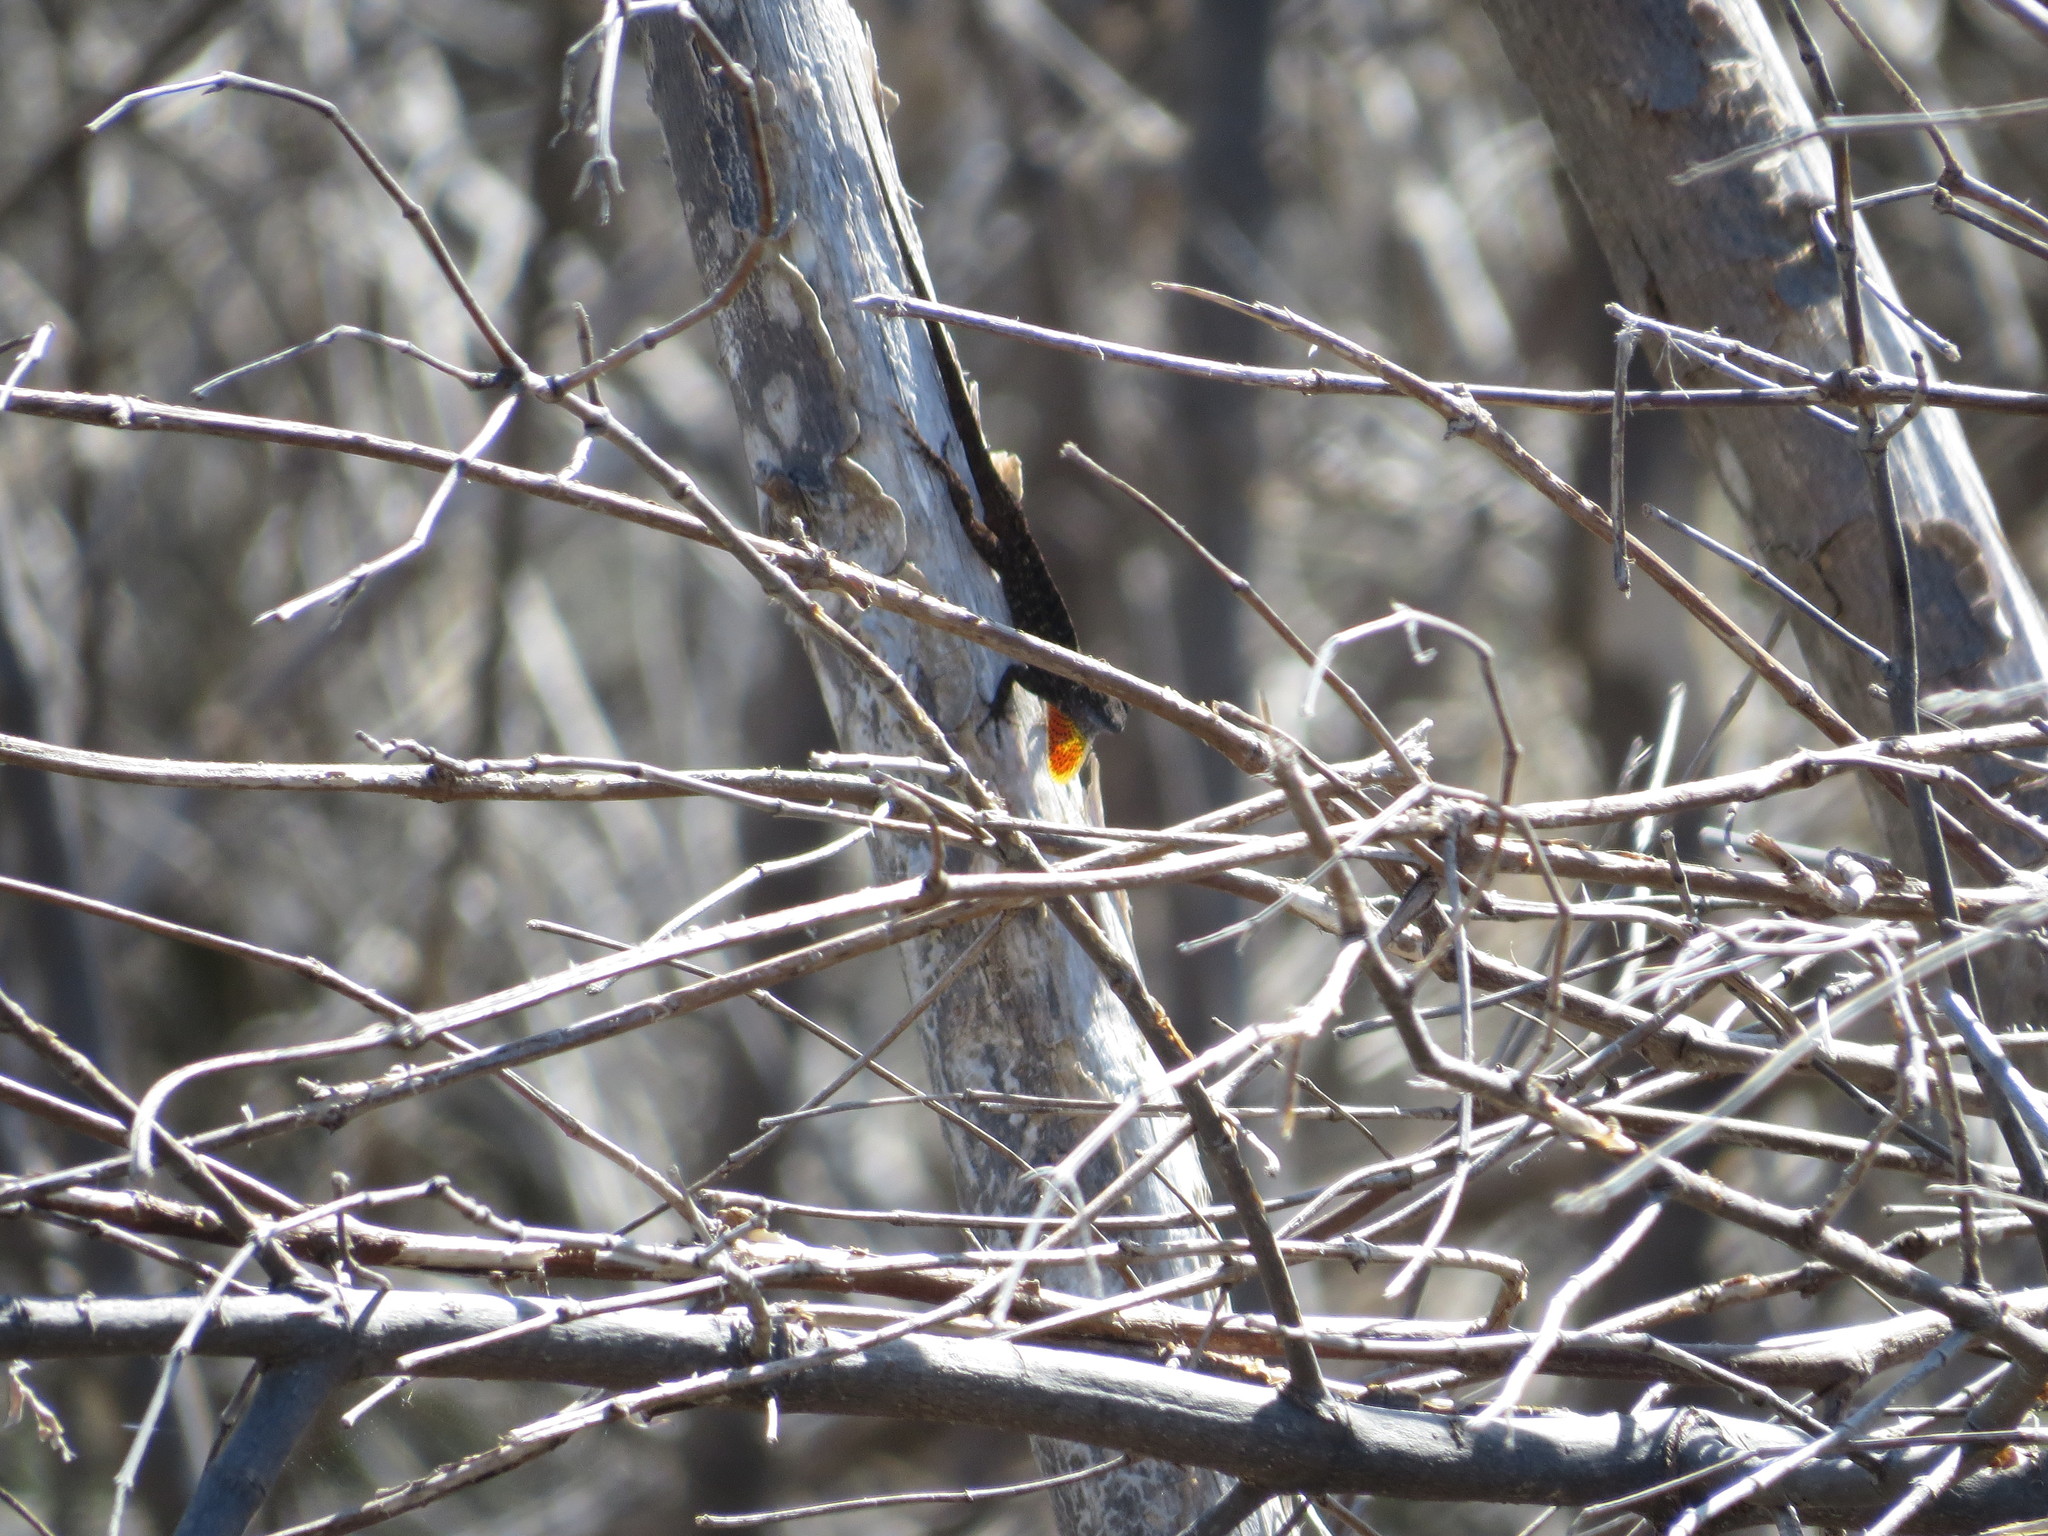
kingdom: Animalia
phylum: Chordata
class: Squamata
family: Dactyloidae
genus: Anolis
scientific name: Anolis sagrei
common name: Brown anole
